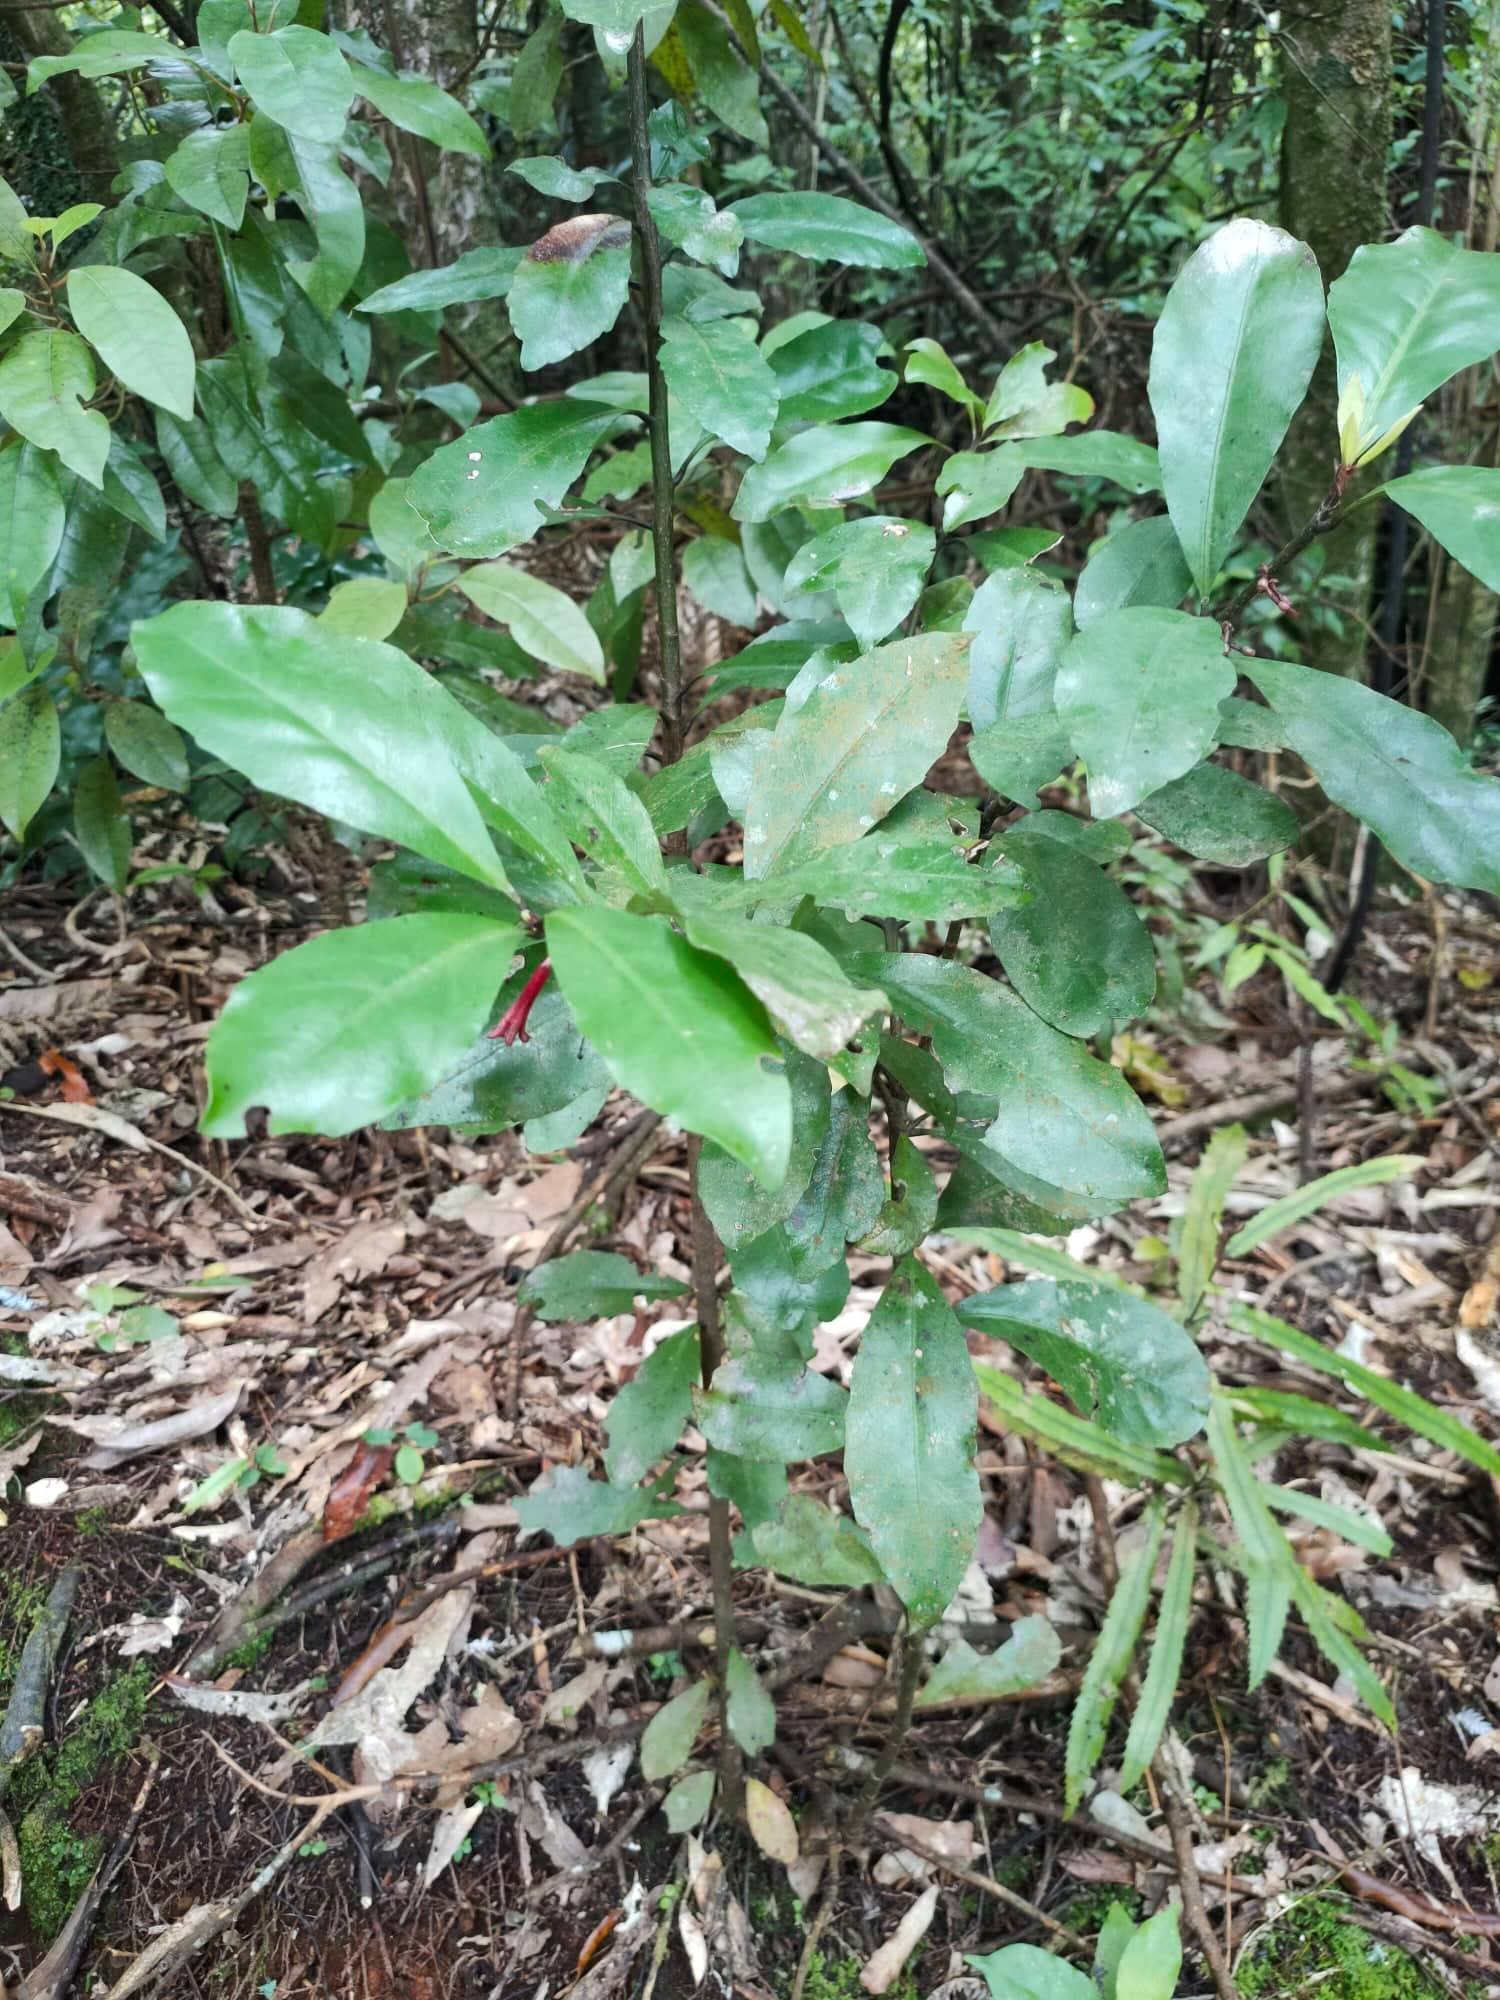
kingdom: Plantae
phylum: Tracheophyta
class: Magnoliopsida
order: Asterales
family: Alseuosmiaceae
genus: Alseuosmia
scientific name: Alseuosmia macrophylla
